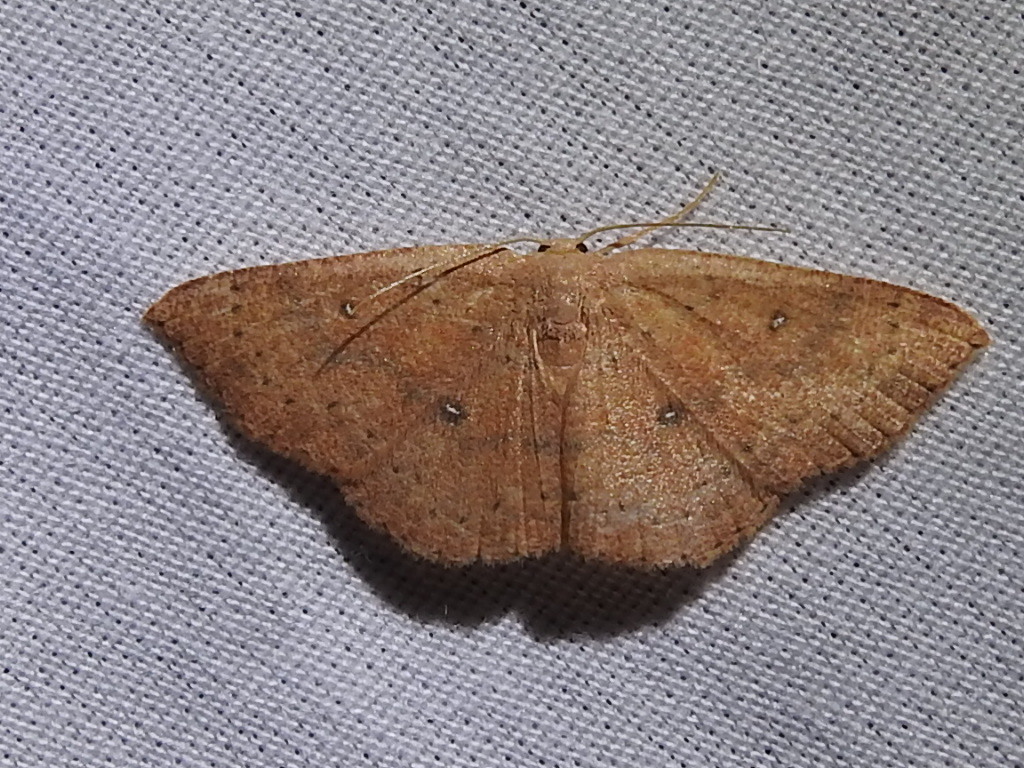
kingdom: Animalia
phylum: Arthropoda
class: Insecta
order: Lepidoptera
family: Geometridae
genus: Cyclophora
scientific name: Cyclophora packardi
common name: Packard's wave
